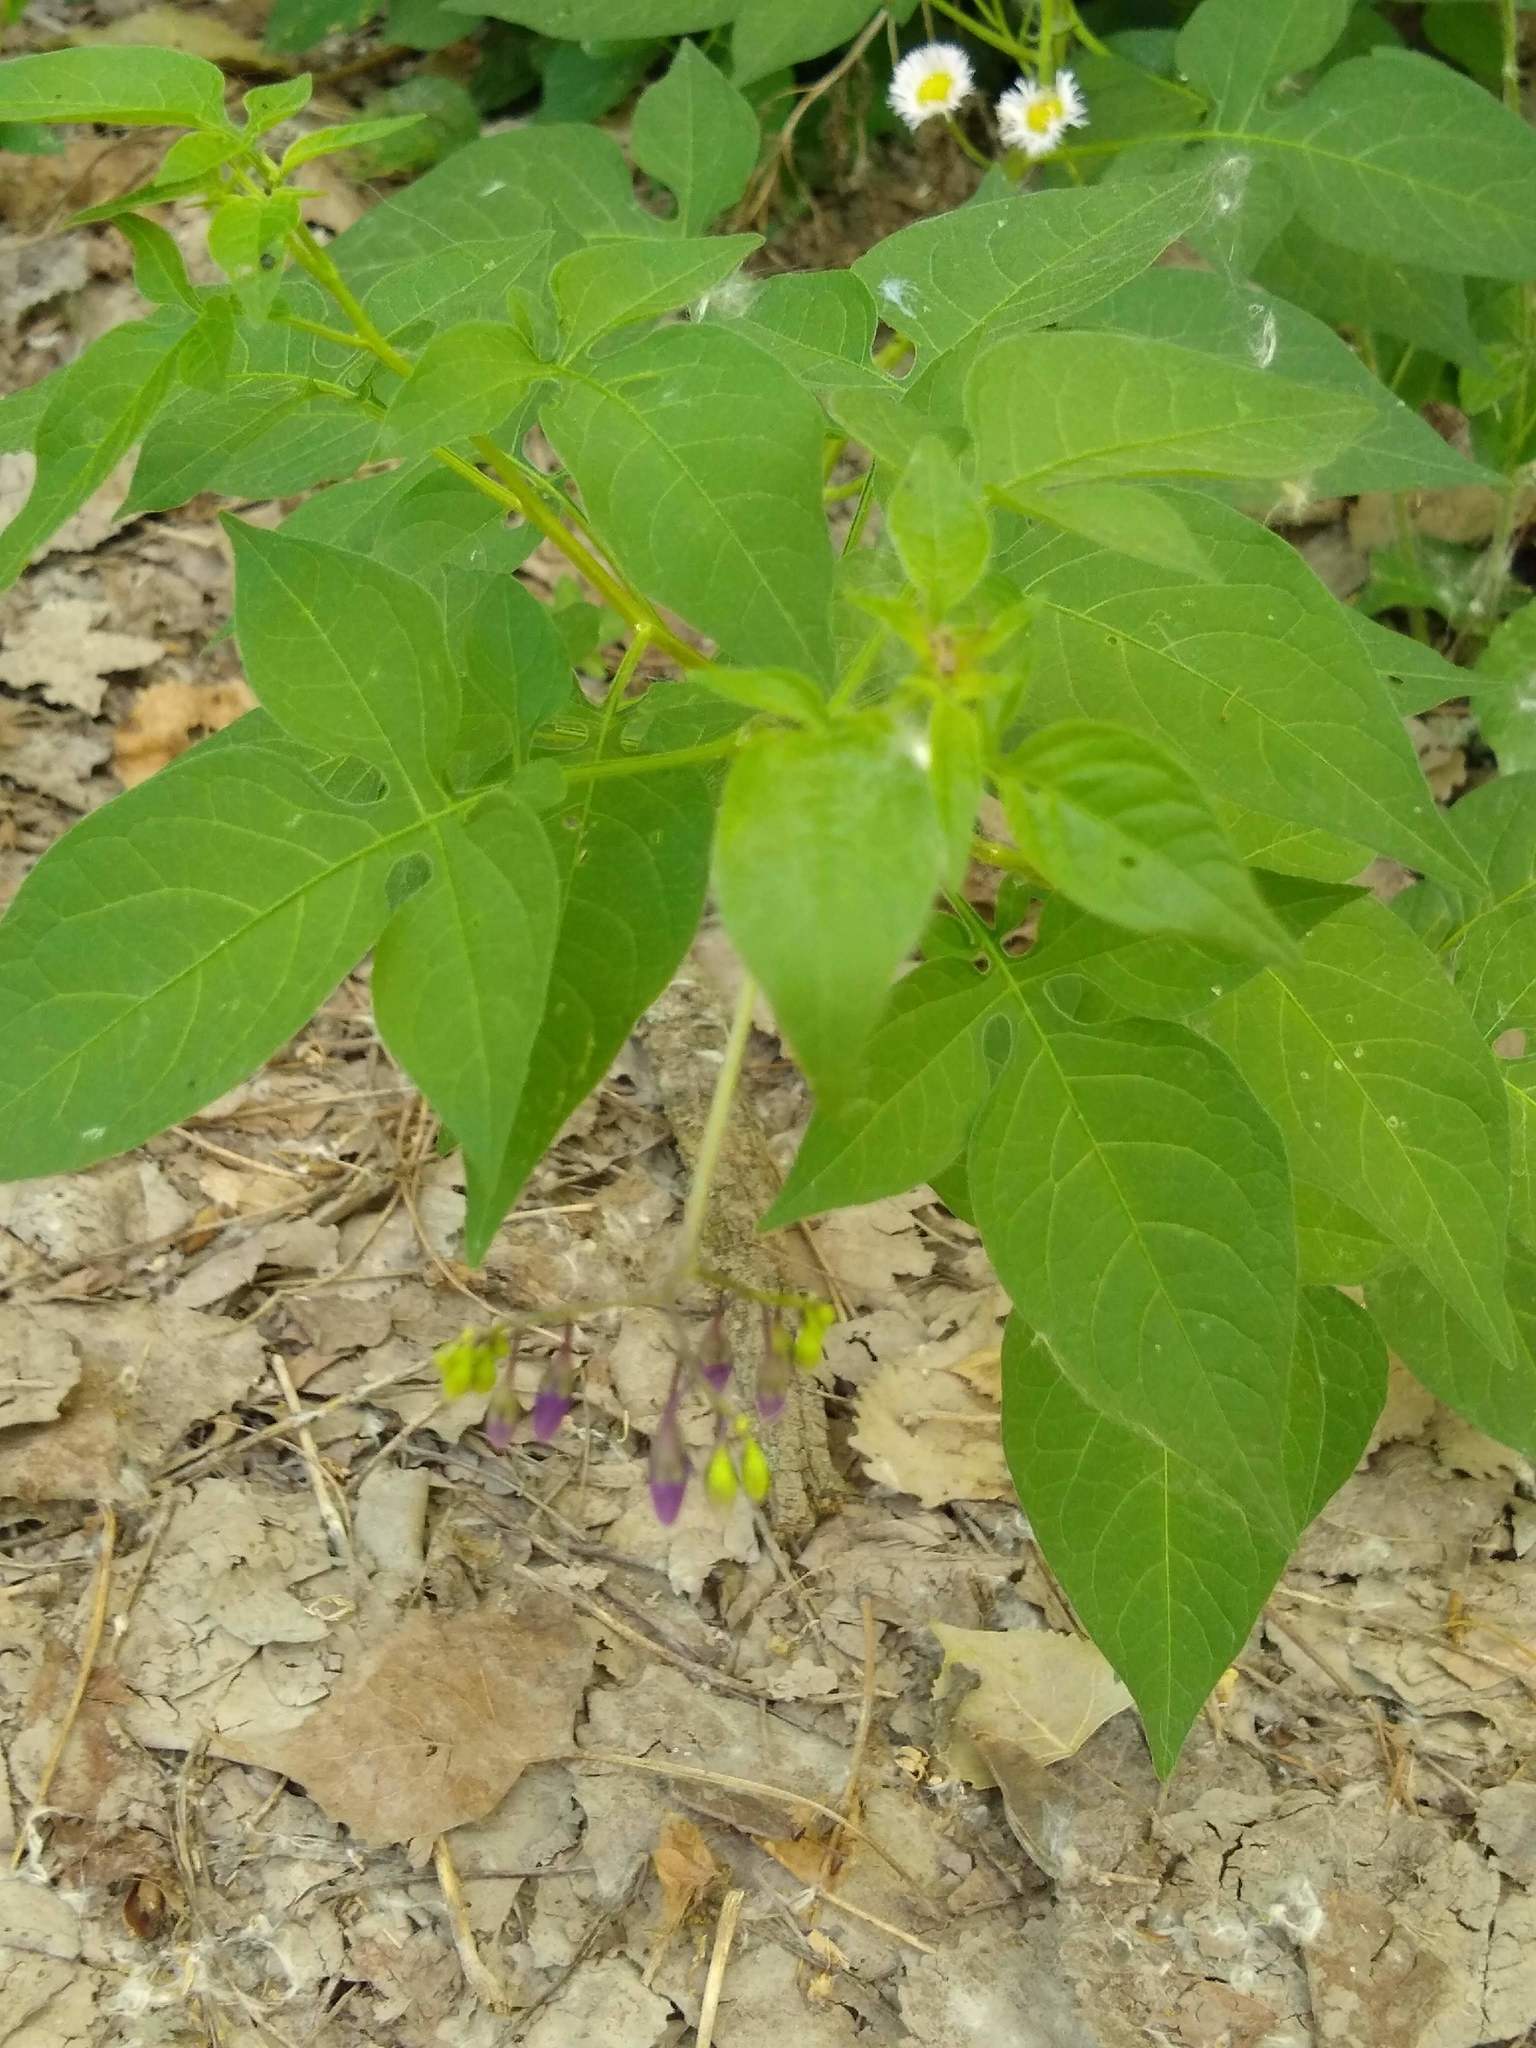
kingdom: Plantae
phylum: Tracheophyta
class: Magnoliopsida
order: Solanales
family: Solanaceae
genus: Solanum
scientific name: Solanum dulcamara
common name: Climbing nightshade
